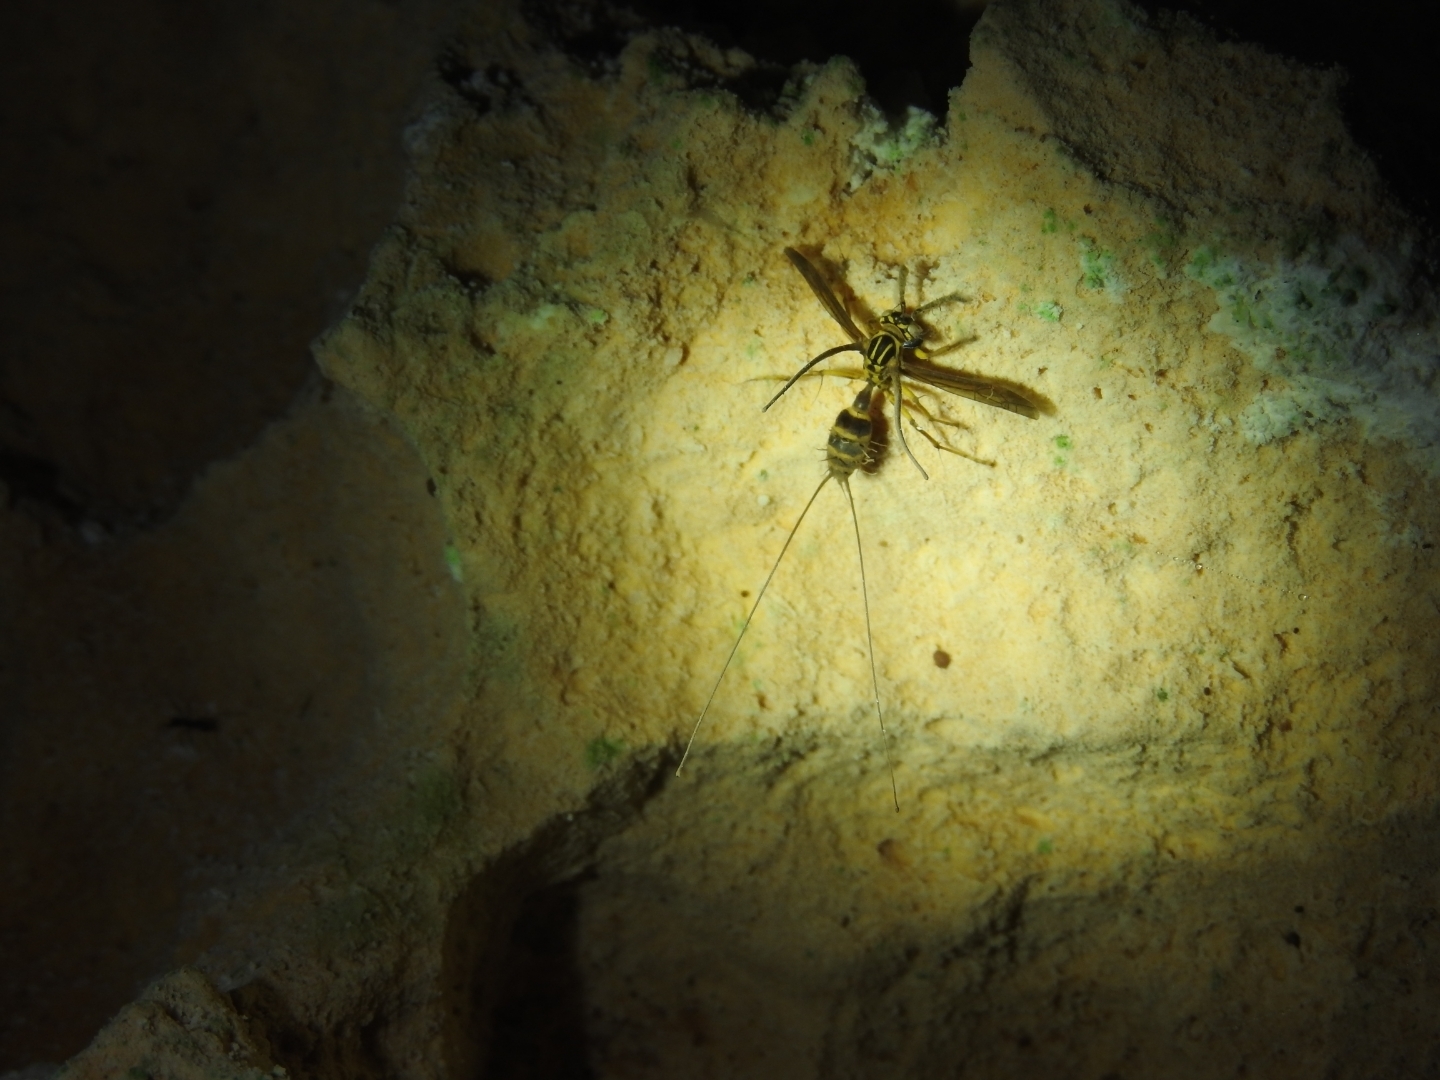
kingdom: Animalia
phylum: Arthropoda
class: Insecta
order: Hymenoptera
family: Vespidae
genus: Agelaia
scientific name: Agelaia yepocapa
